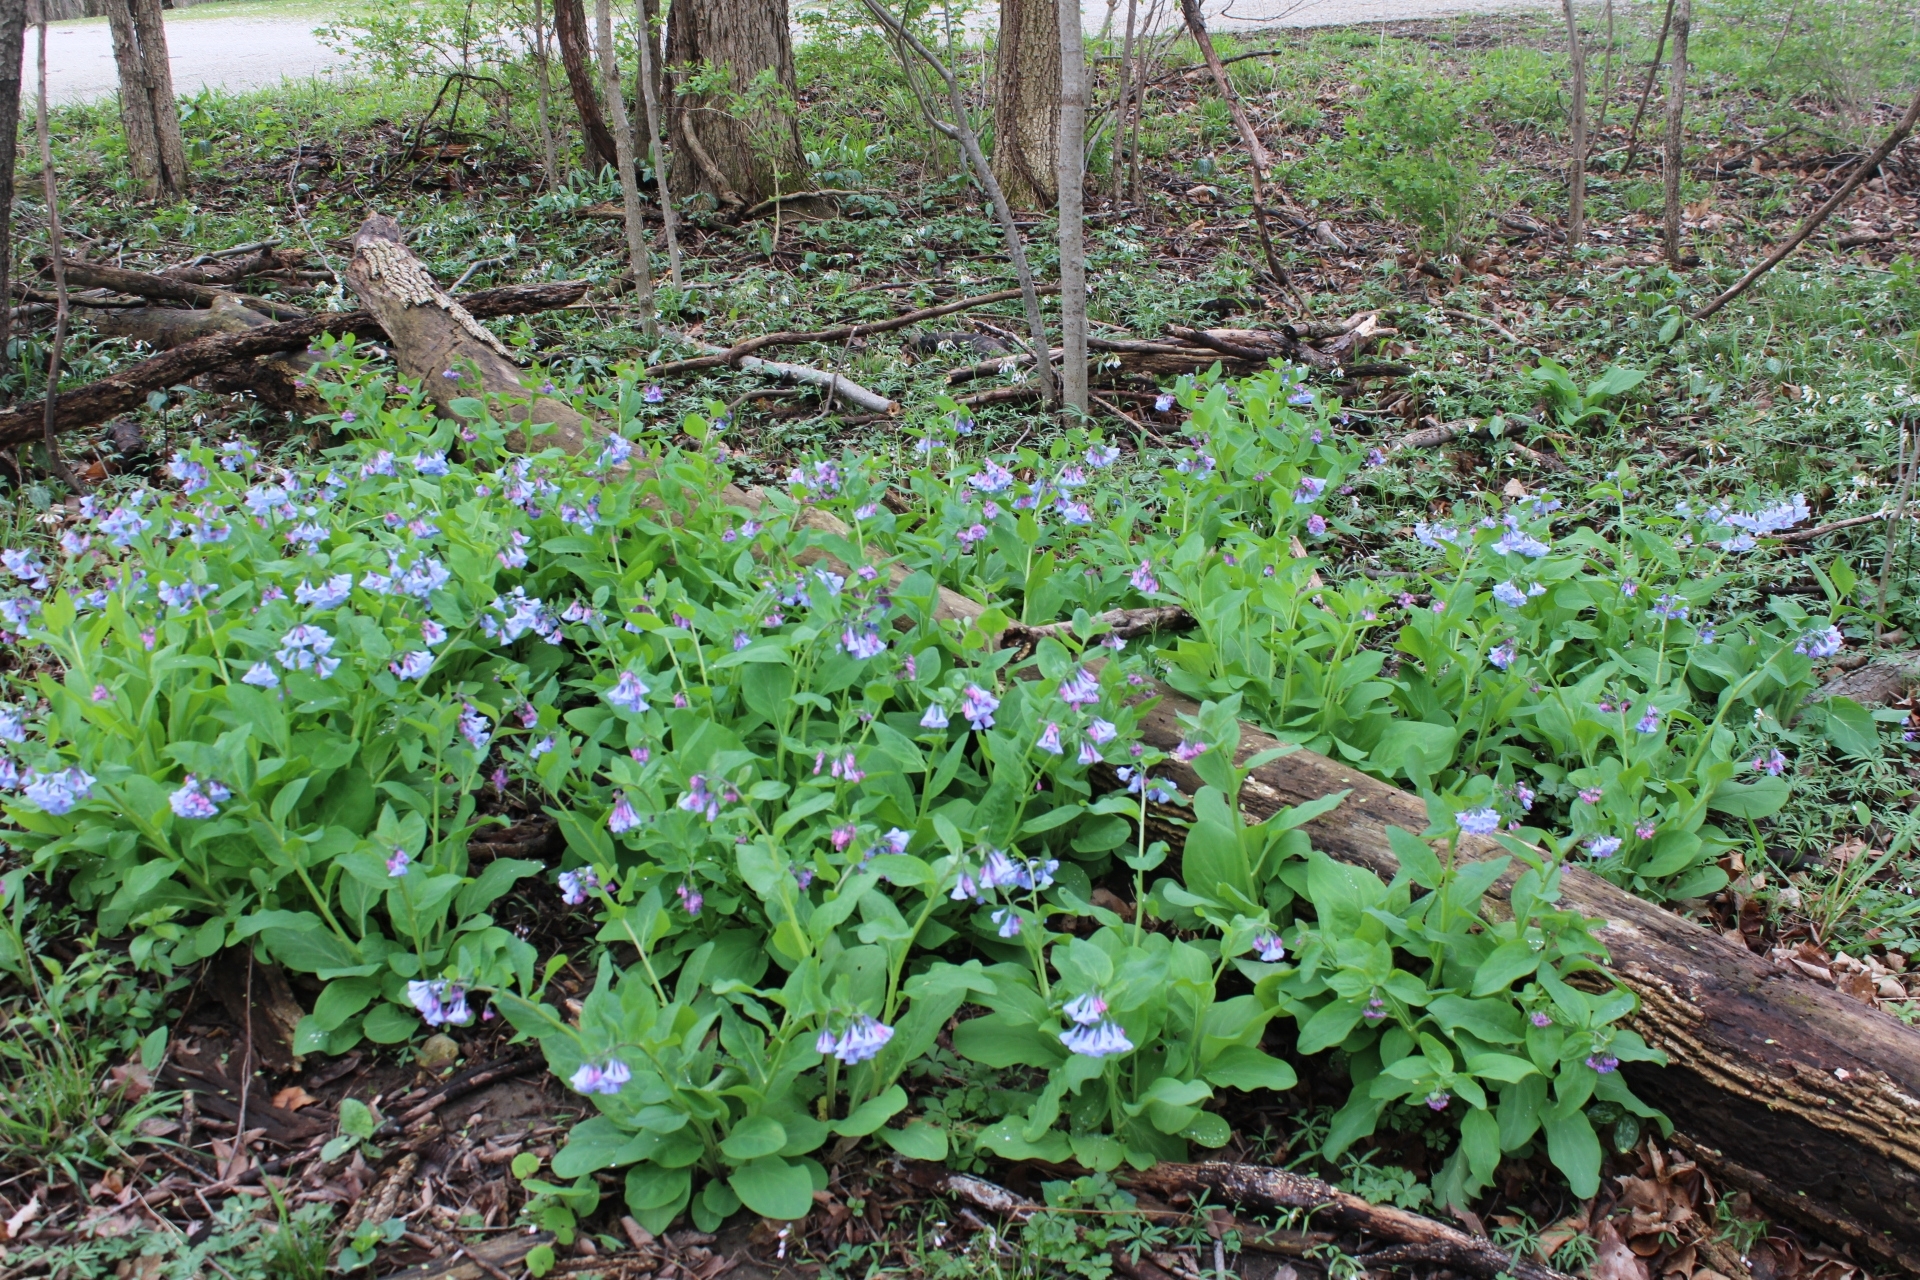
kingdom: Plantae
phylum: Tracheophyta
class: Magnoliopsida
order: Boraginales
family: Boraginaceae
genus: Mertensia
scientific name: Mertensia virginica
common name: Virginia bluebells
